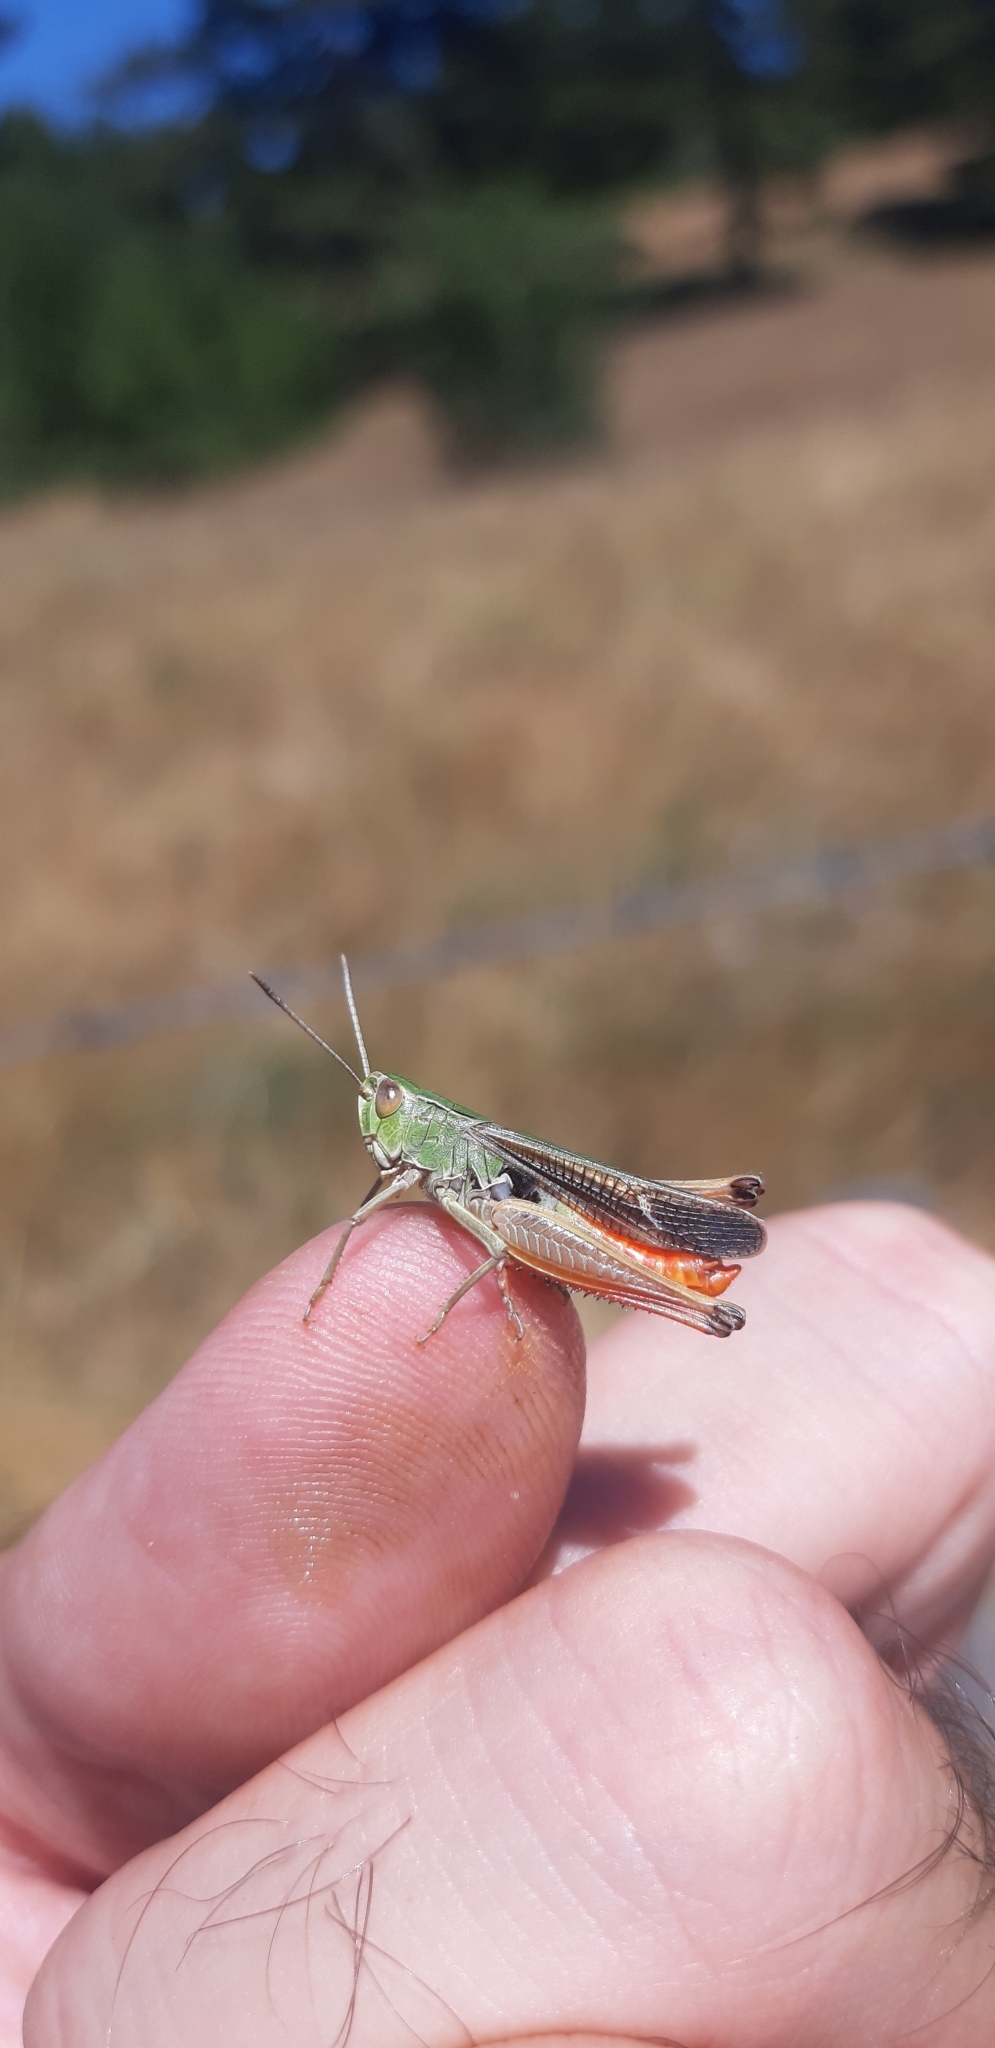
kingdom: Animalia
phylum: Arthropoda
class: Insecta
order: Orthoptera
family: Acrididae
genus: Stenobothrus
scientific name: Stenobothrus lineatus
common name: Stripe-winged grasshopper
